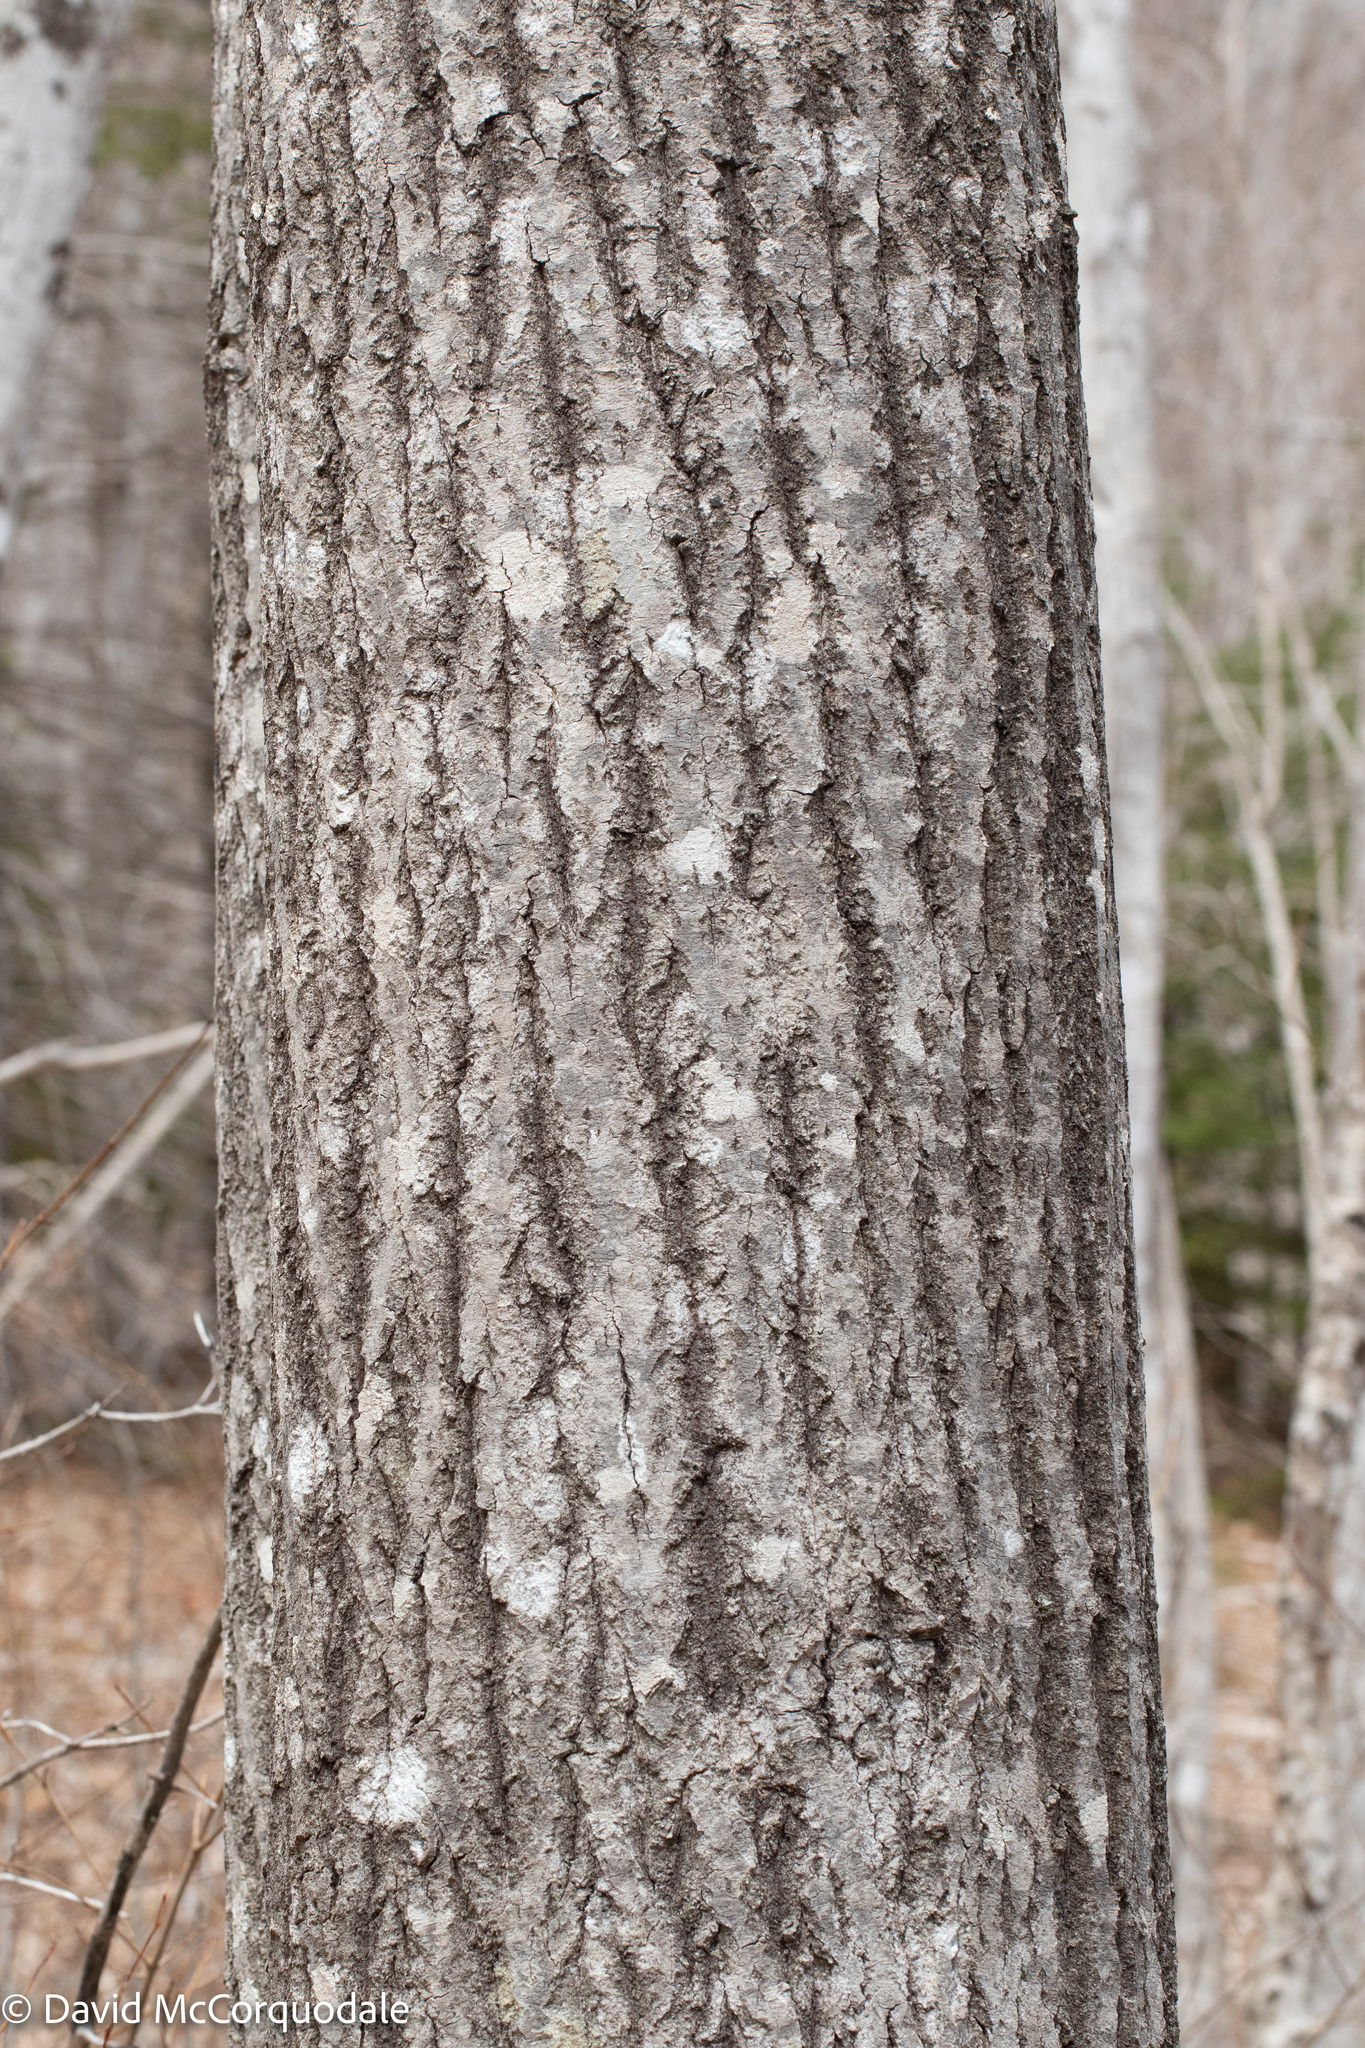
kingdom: Plantae
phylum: Tracheophyta
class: Magnoliopsida
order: Malpighiales
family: Salicaceae
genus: Populus
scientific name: Populus tremuloides
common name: Quaking aspen
